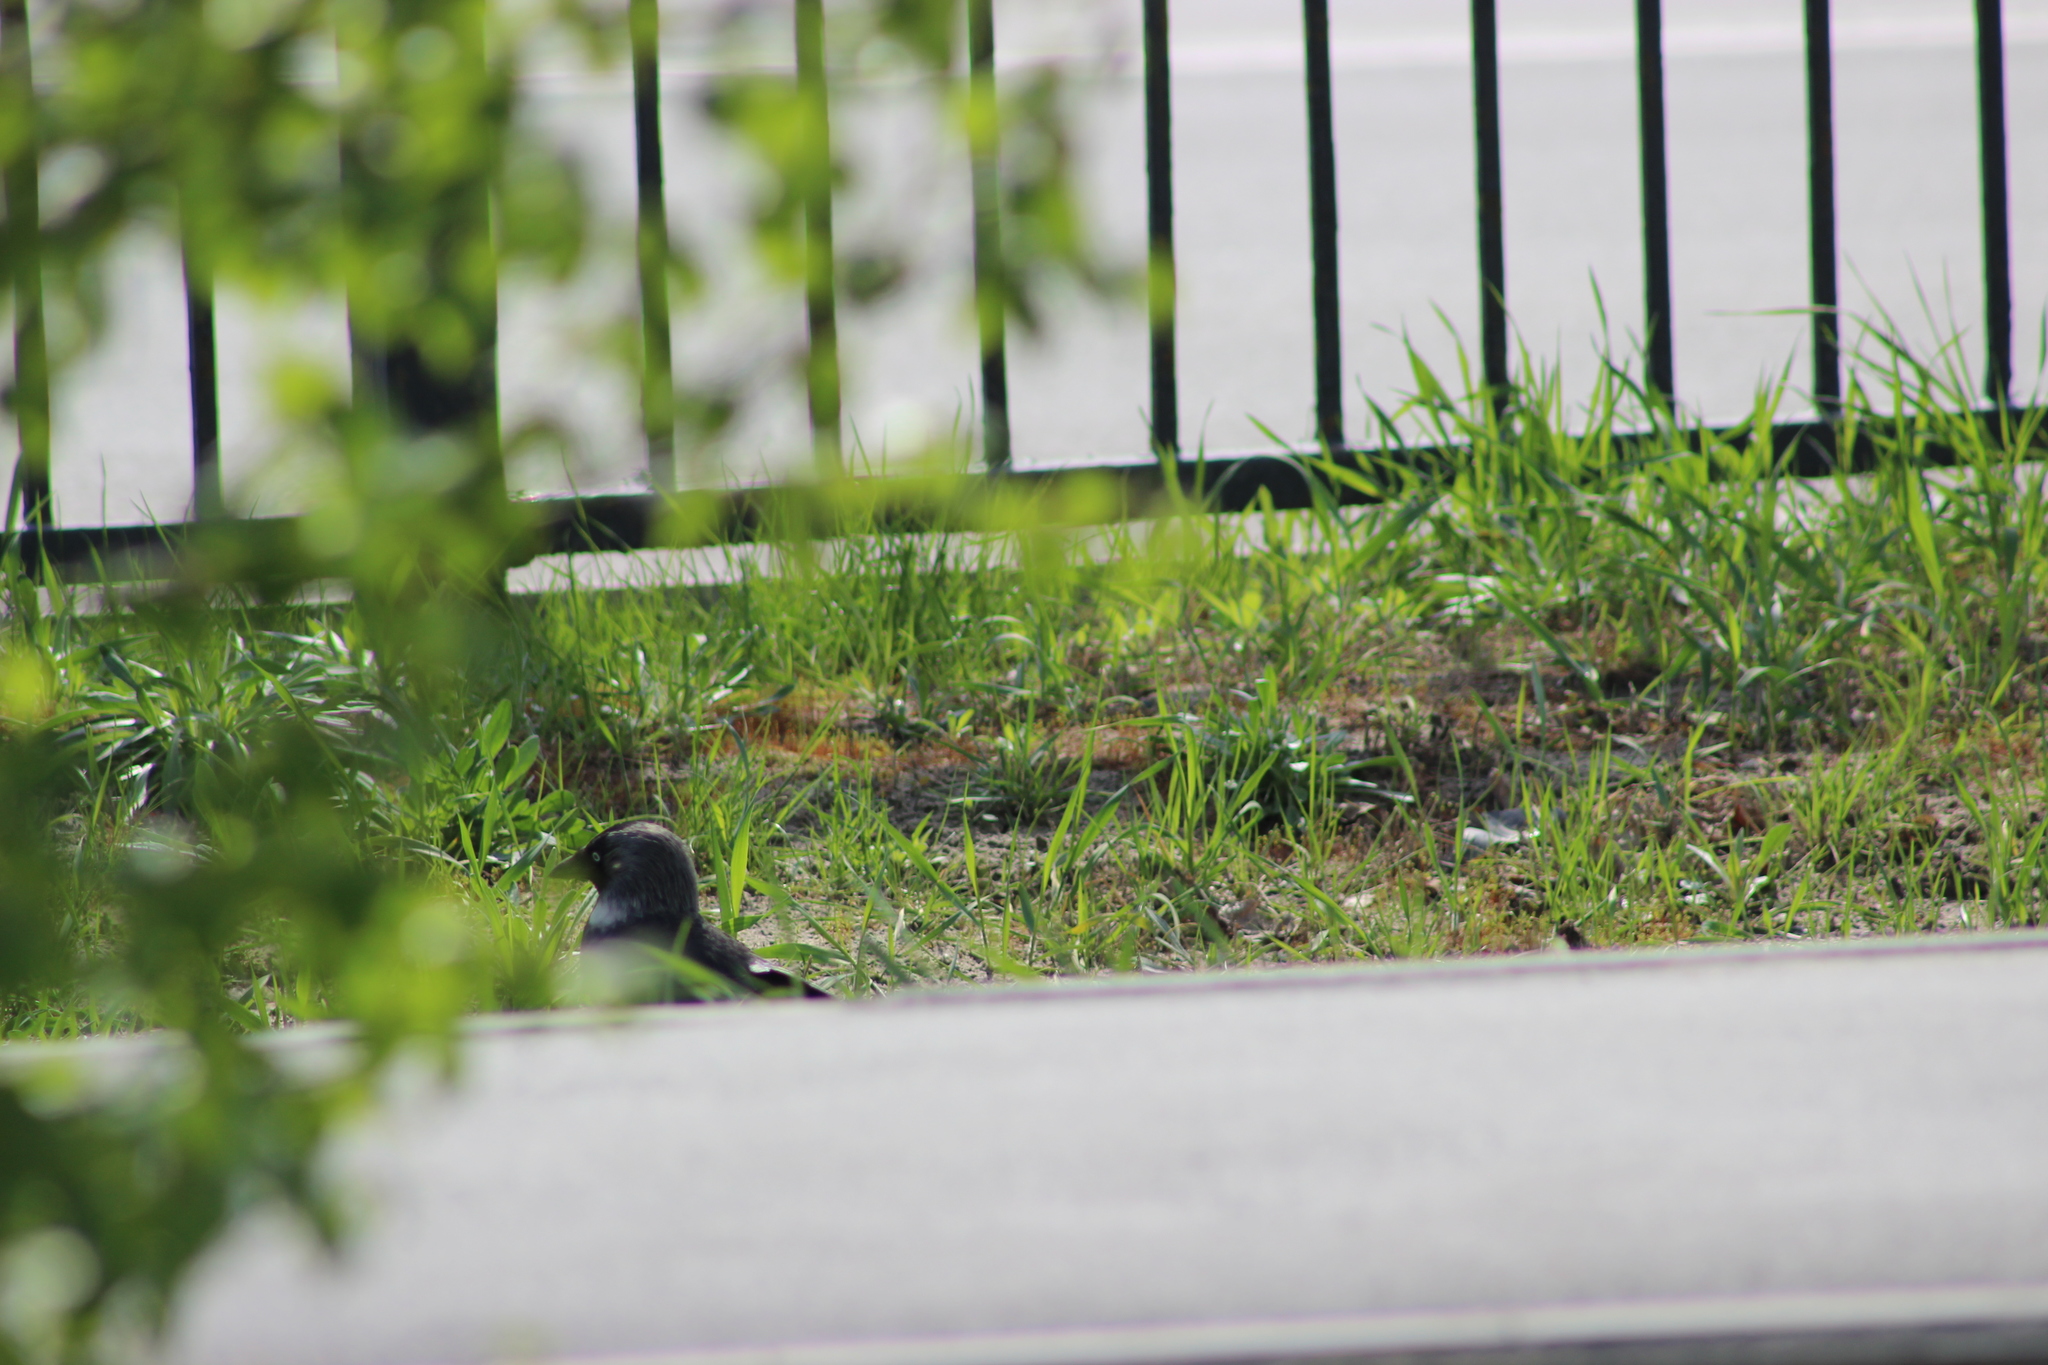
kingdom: Animalia
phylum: Chordata
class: Aves
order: Passeriformes
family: Corvidae
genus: Coloeus
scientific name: Coloeus monedula
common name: Western jackdaw
